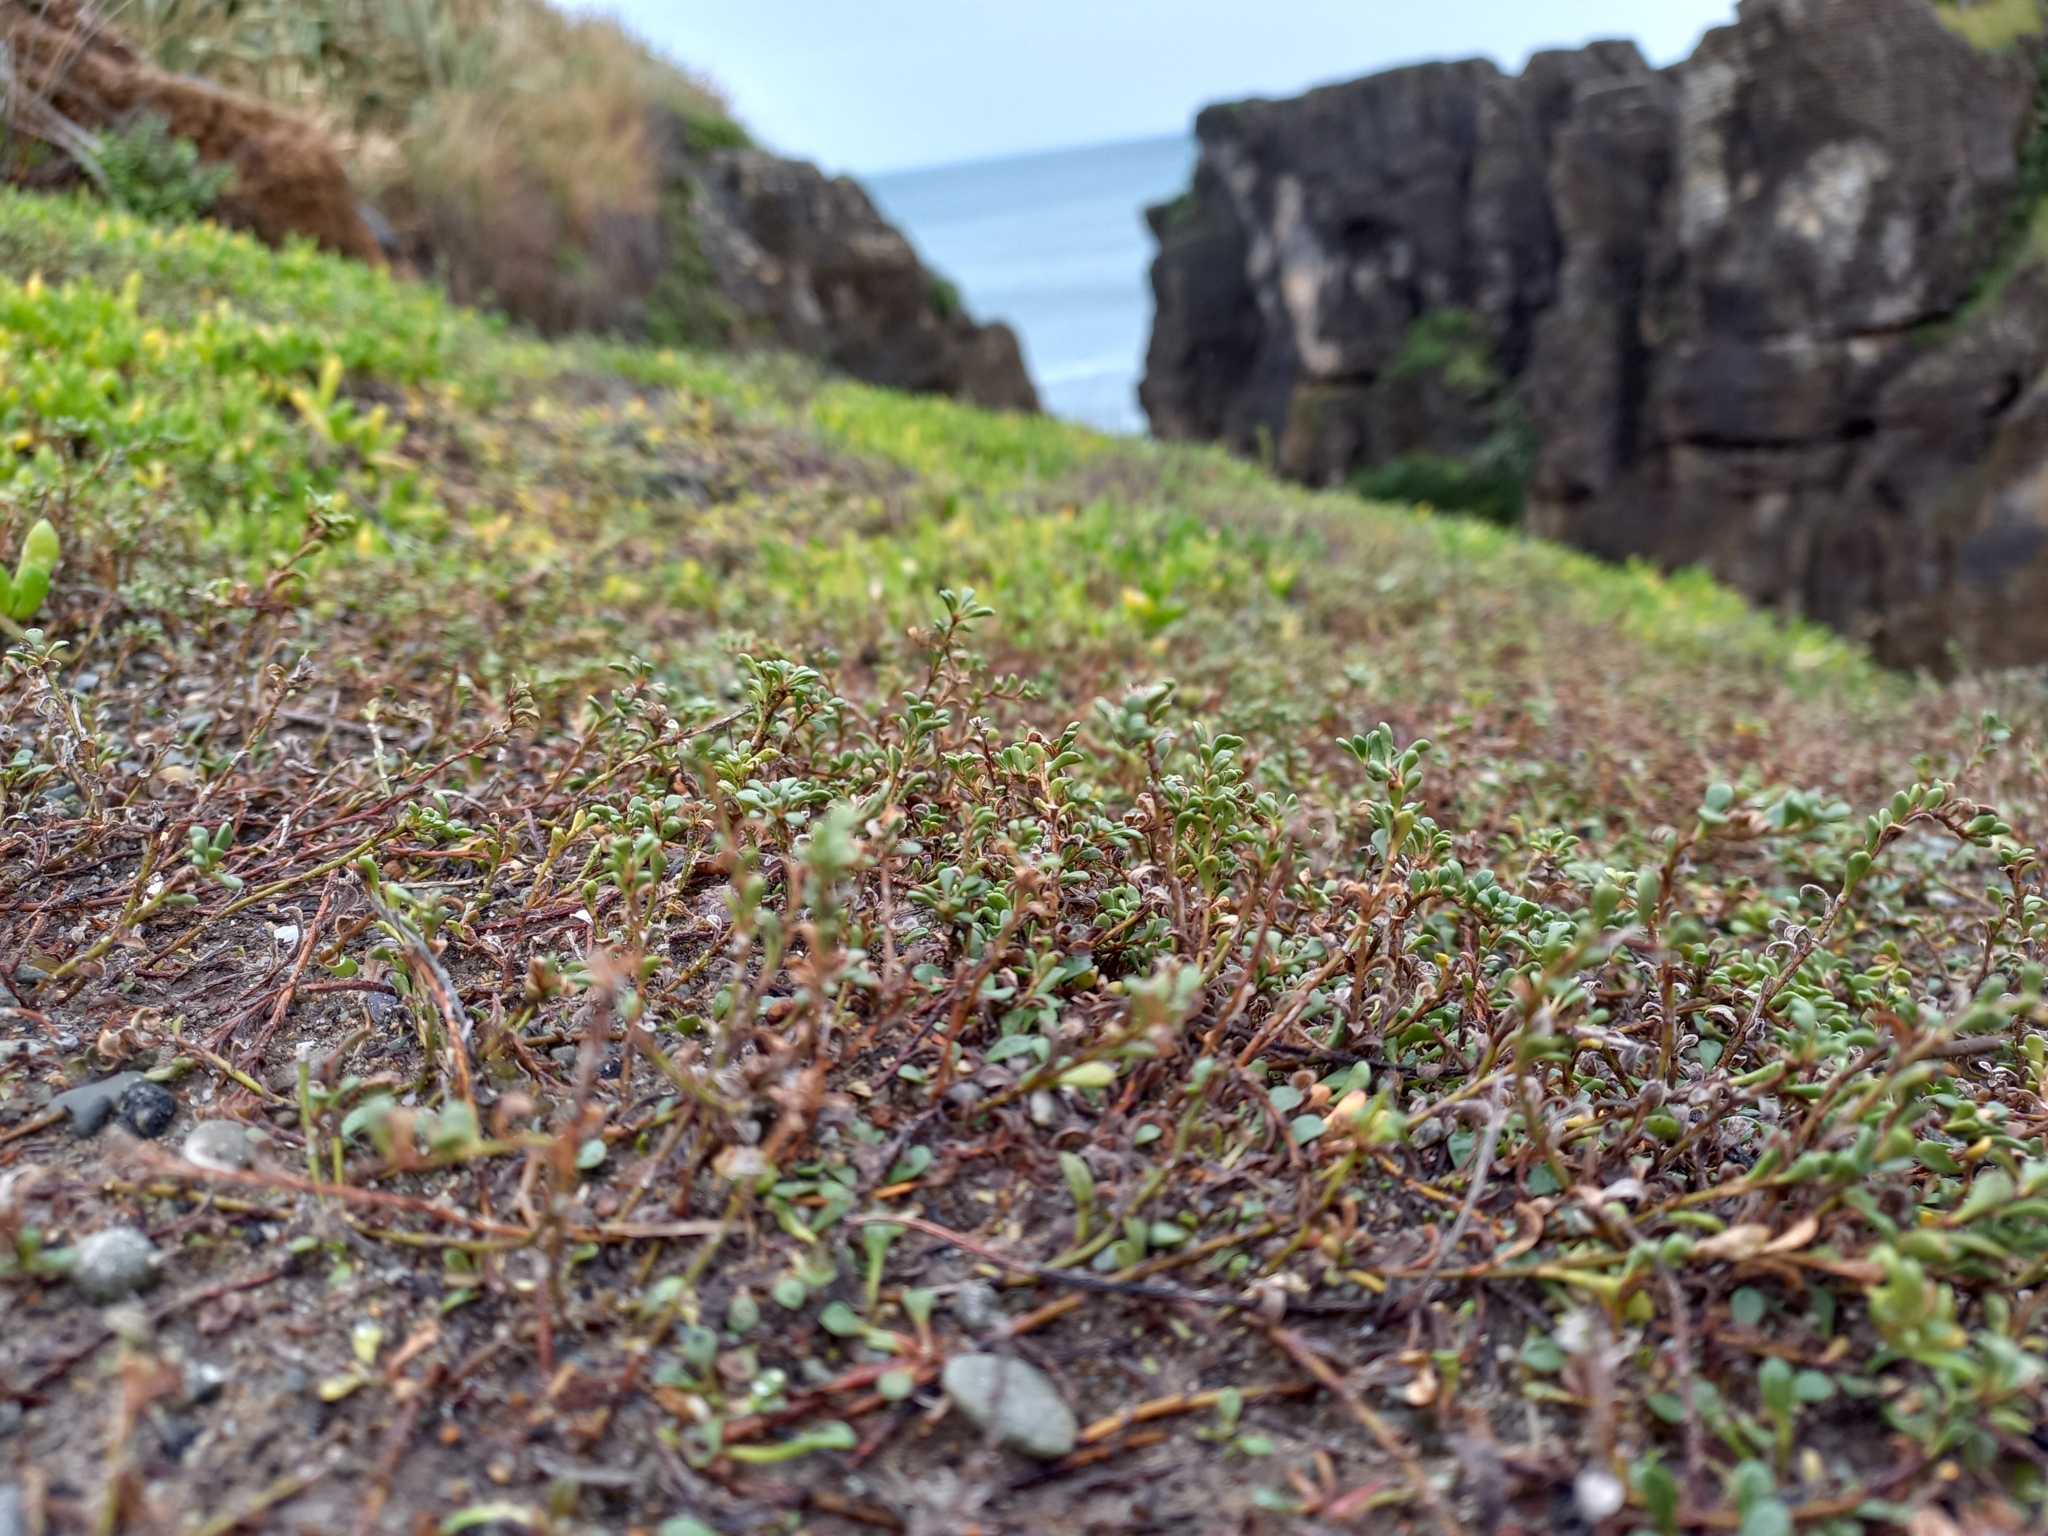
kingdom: Plantae
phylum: Tracheophyta
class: Magnoliopsida
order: Ericales
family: Primulaceae
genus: Samolus
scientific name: Samolus repens
